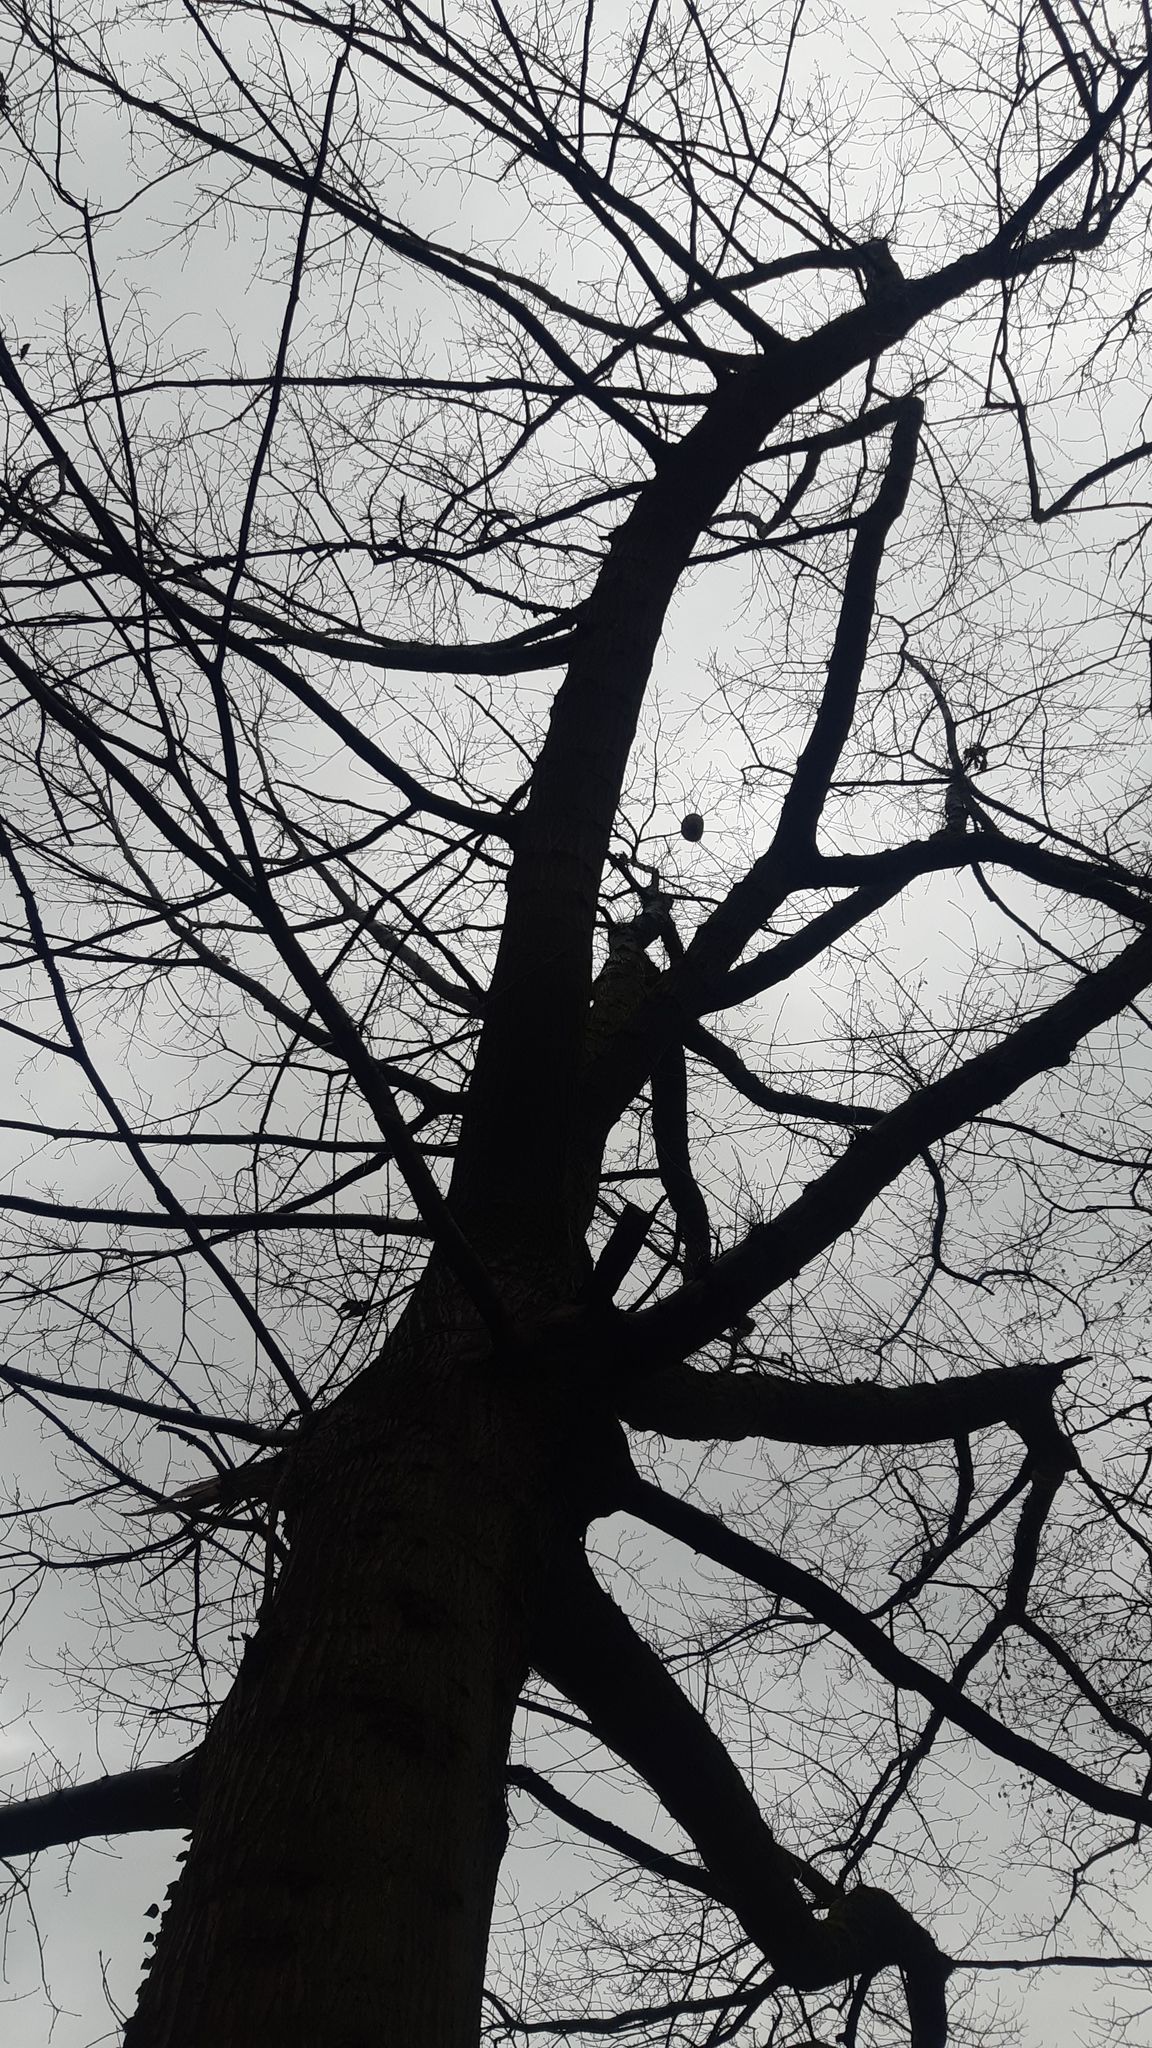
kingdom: Animalia
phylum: Arthropoda
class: Insecta
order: Hymenoptera
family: Vespidae
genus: Vespa
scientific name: Vespa velutina
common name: Asian hornet
